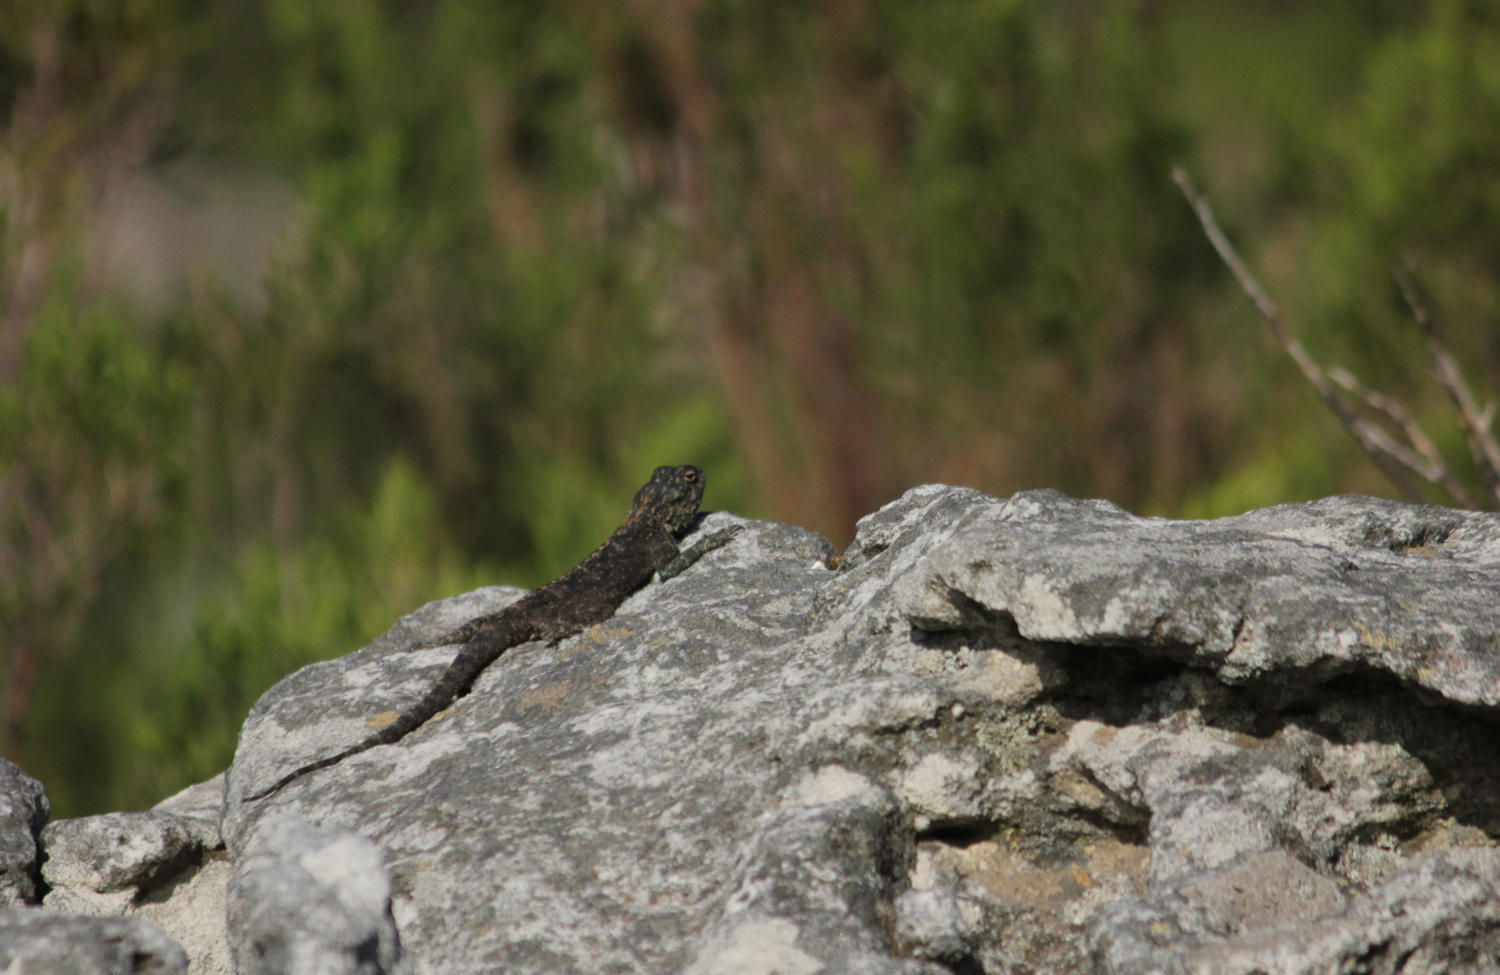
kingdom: Animalia
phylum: Chordata
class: Squamata
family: Agamidae
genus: Agama
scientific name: Agama atra
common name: Southern african rock agama
